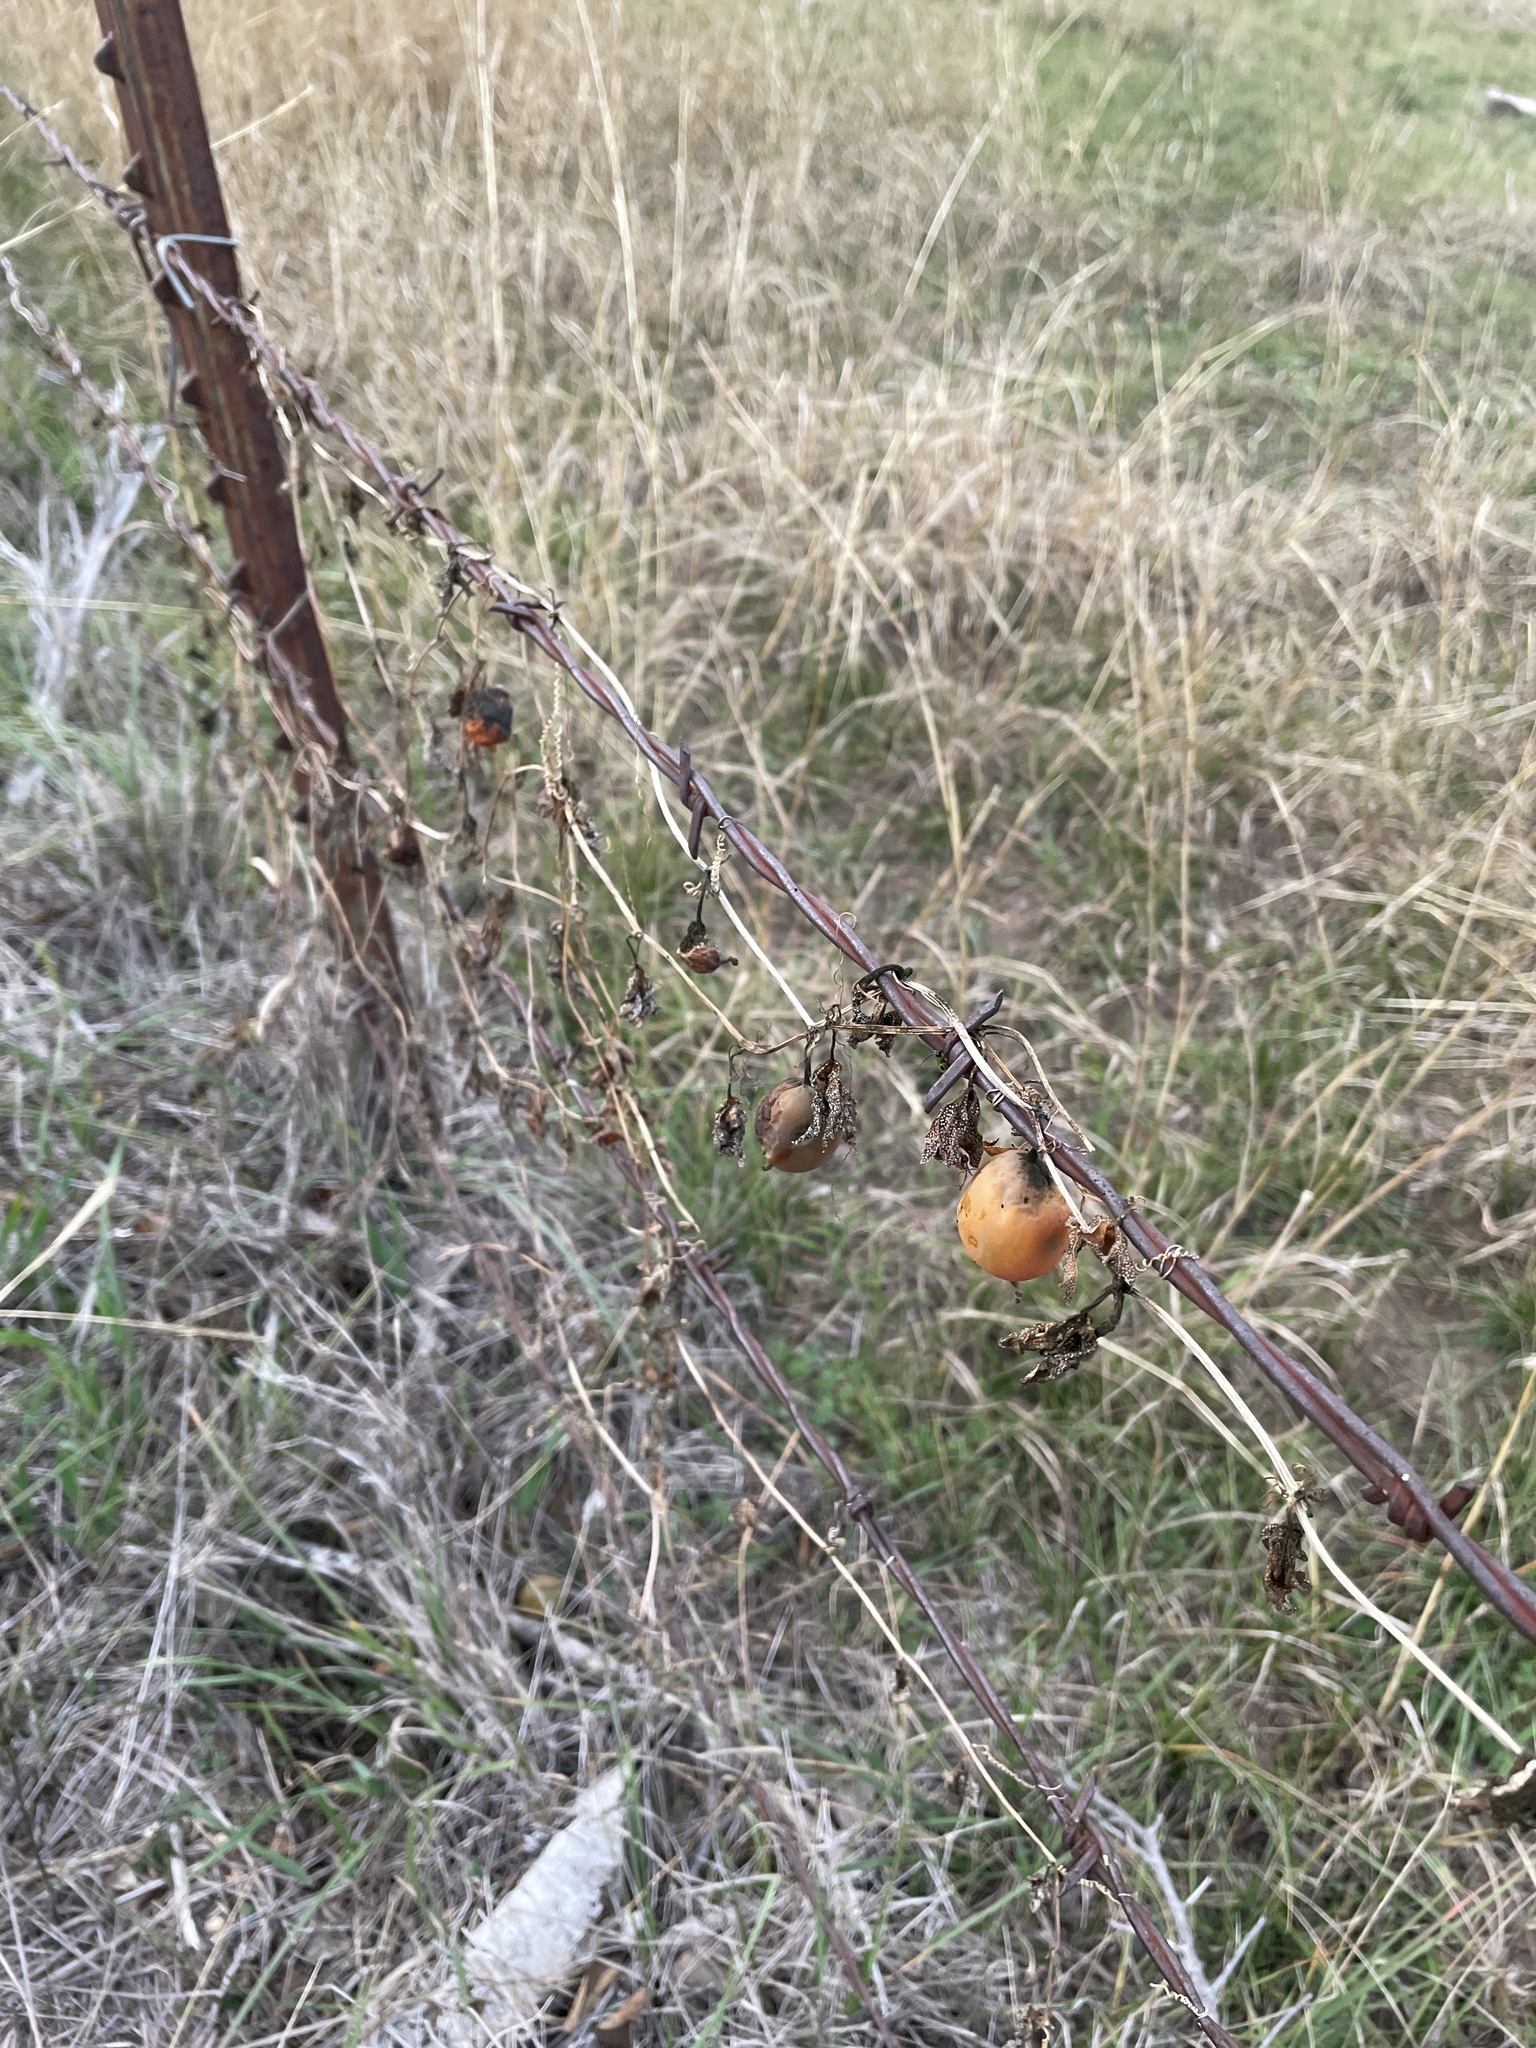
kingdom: Plantae
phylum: Tracheophyta
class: Magnoliopsida
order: Cucurbitales
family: Cucurbitaceae
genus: Ibervillea
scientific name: Ibervillea lindheimeri
